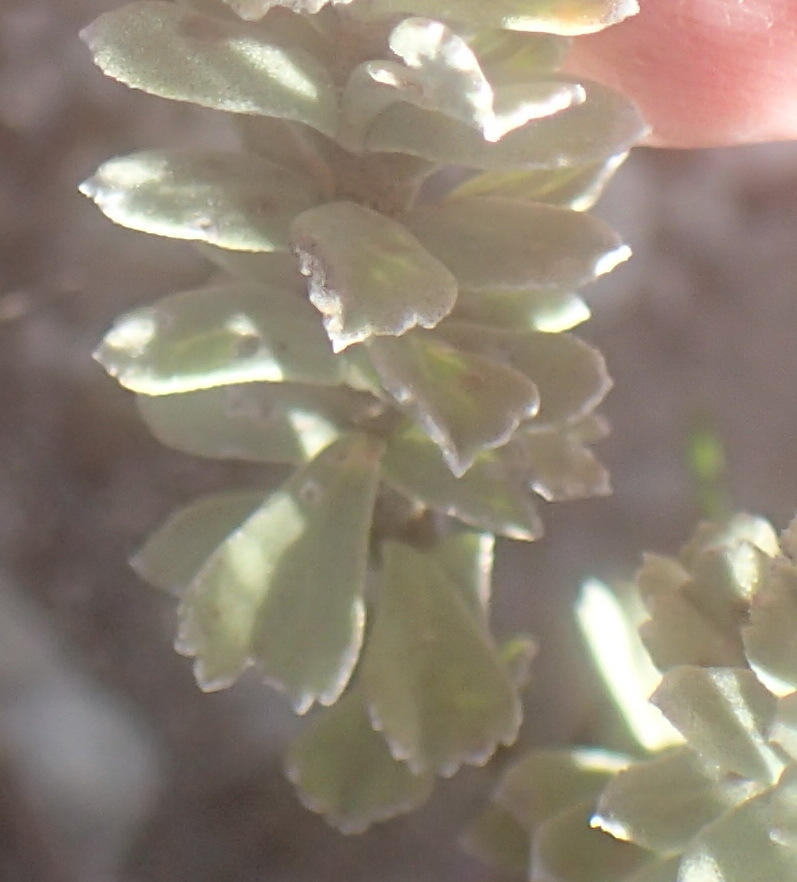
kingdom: Plantae
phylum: Tracheophyta
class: Magnoliopsida
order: Malvales
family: Malvaceae
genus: Hermannia
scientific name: Hermannia trifoliata
